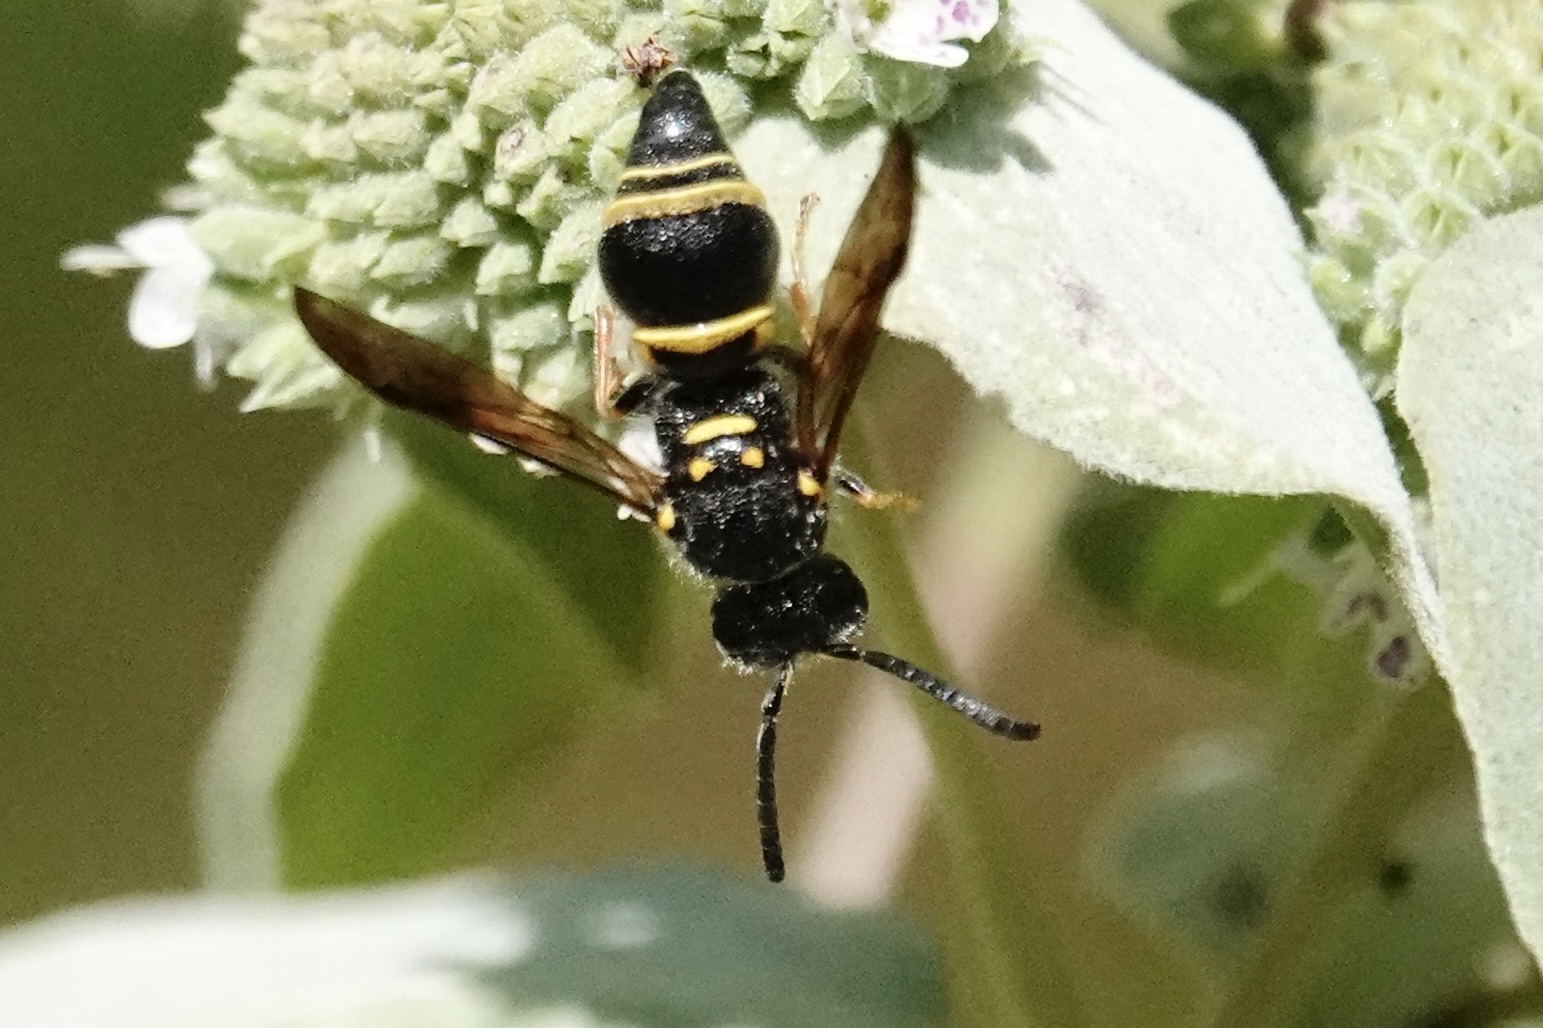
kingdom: Animalia
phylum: Arthropoda
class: Insecta
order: Hymenoptera
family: Vespidae
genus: Ancistrocerus
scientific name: Ancistrocerus campestris
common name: Smiling mason wasp
